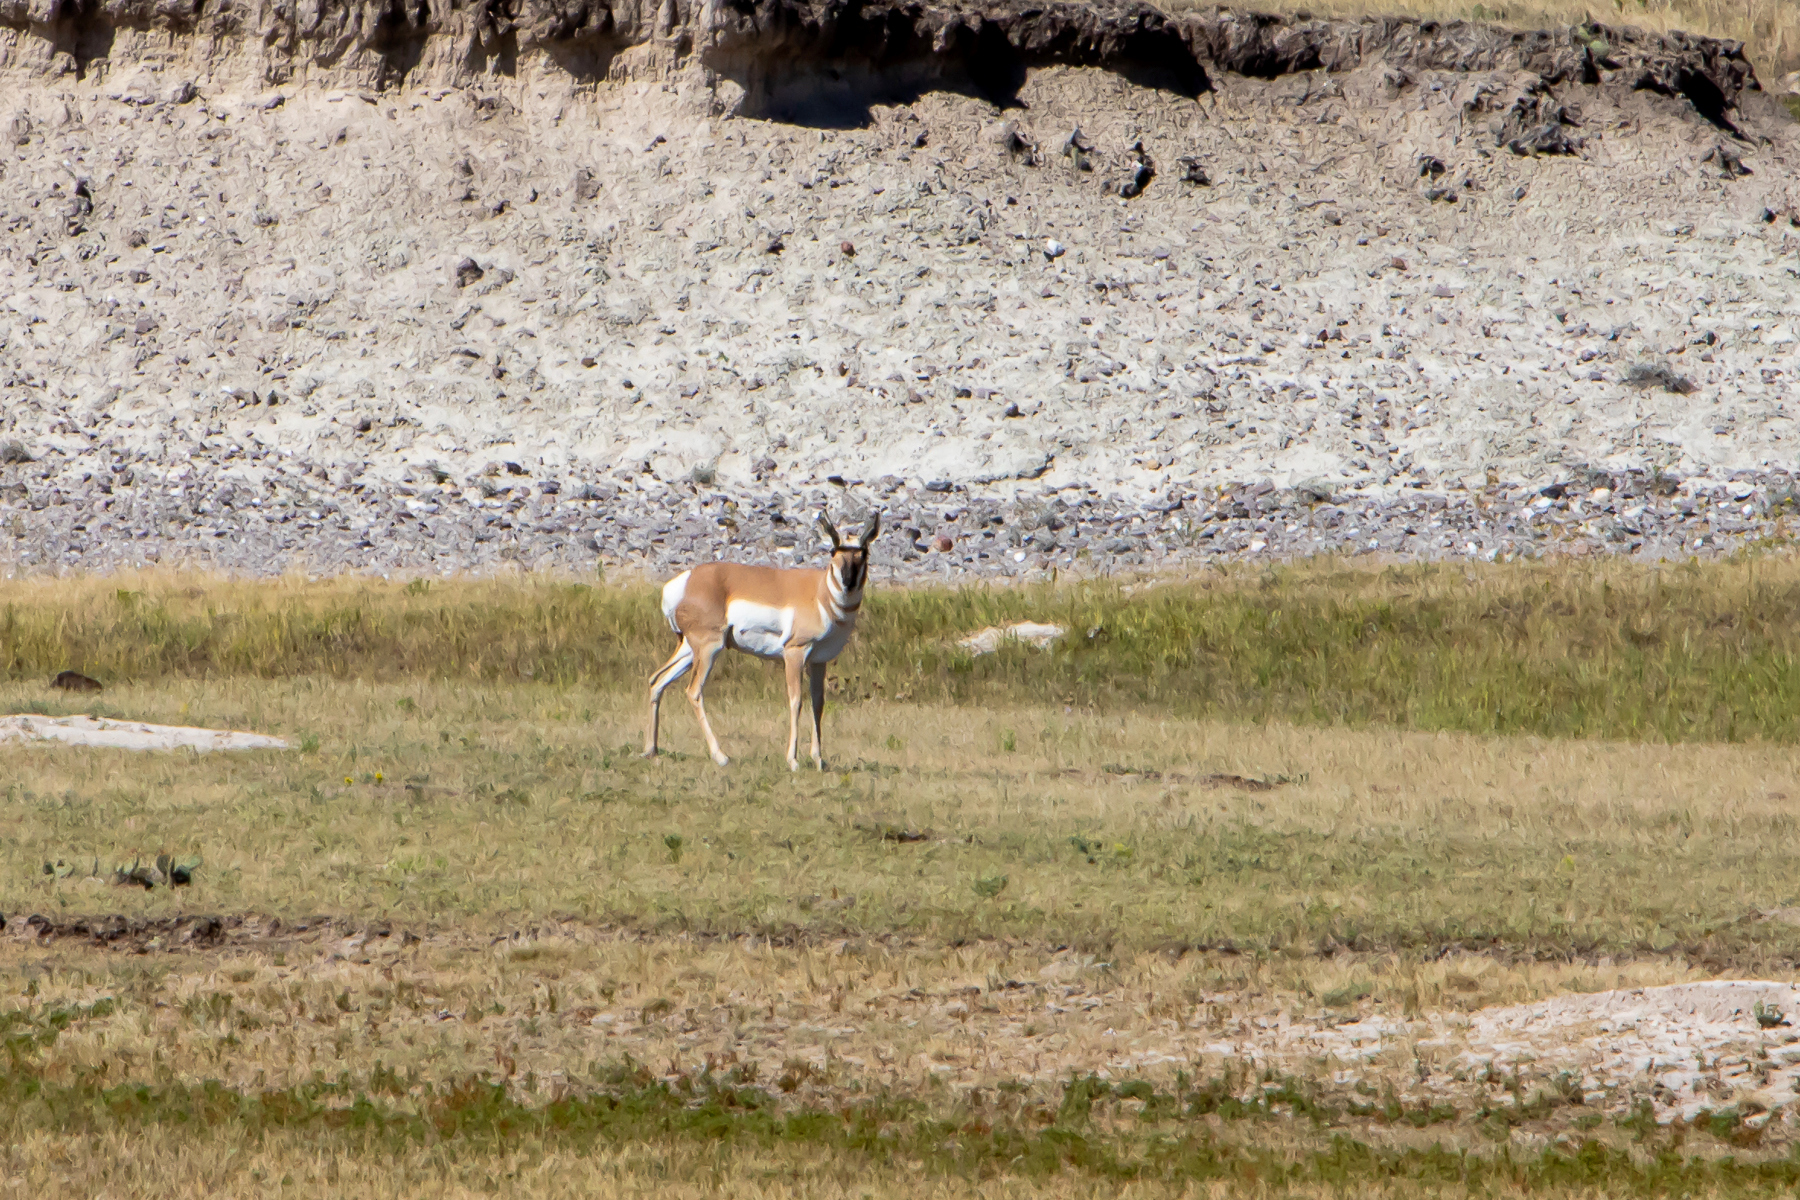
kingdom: Animalia
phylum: Chordata
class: Mammalia
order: Artiodactyla
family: Antilocapridae
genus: Antilocapra
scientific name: Antilocapra americana
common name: Pronghorn
